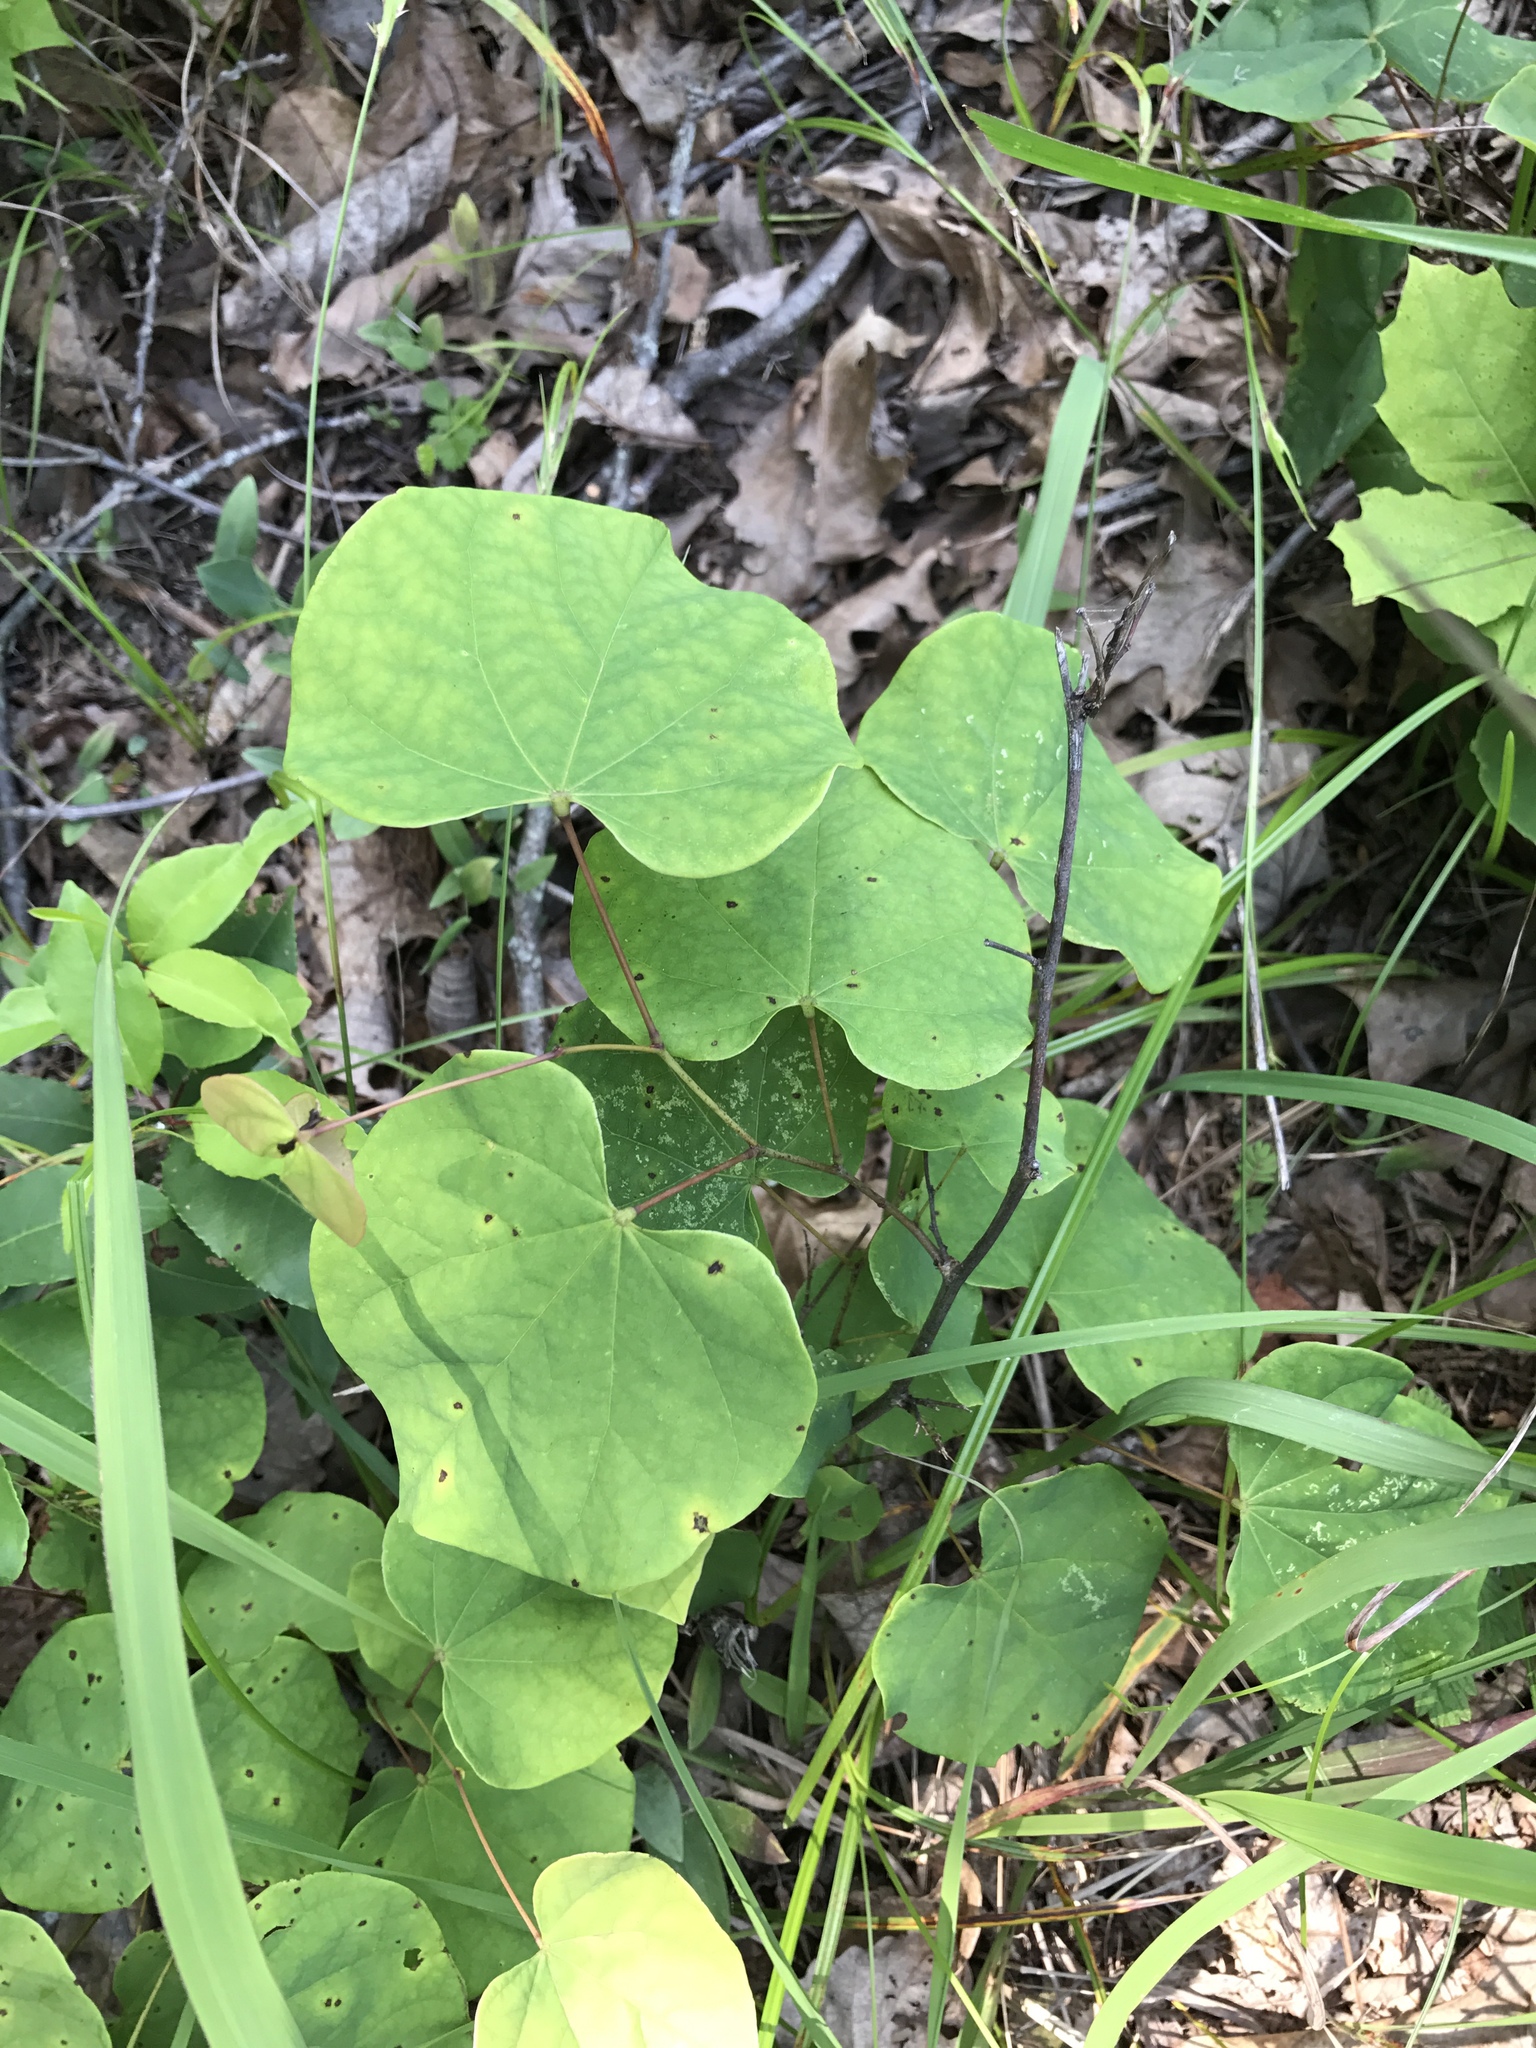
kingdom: Plantae
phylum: Tracheophyta
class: Magnoliopsida
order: Fabales
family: Fabaceae
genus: Cercis
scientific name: Cercis canadensis
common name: Eastern redbud
